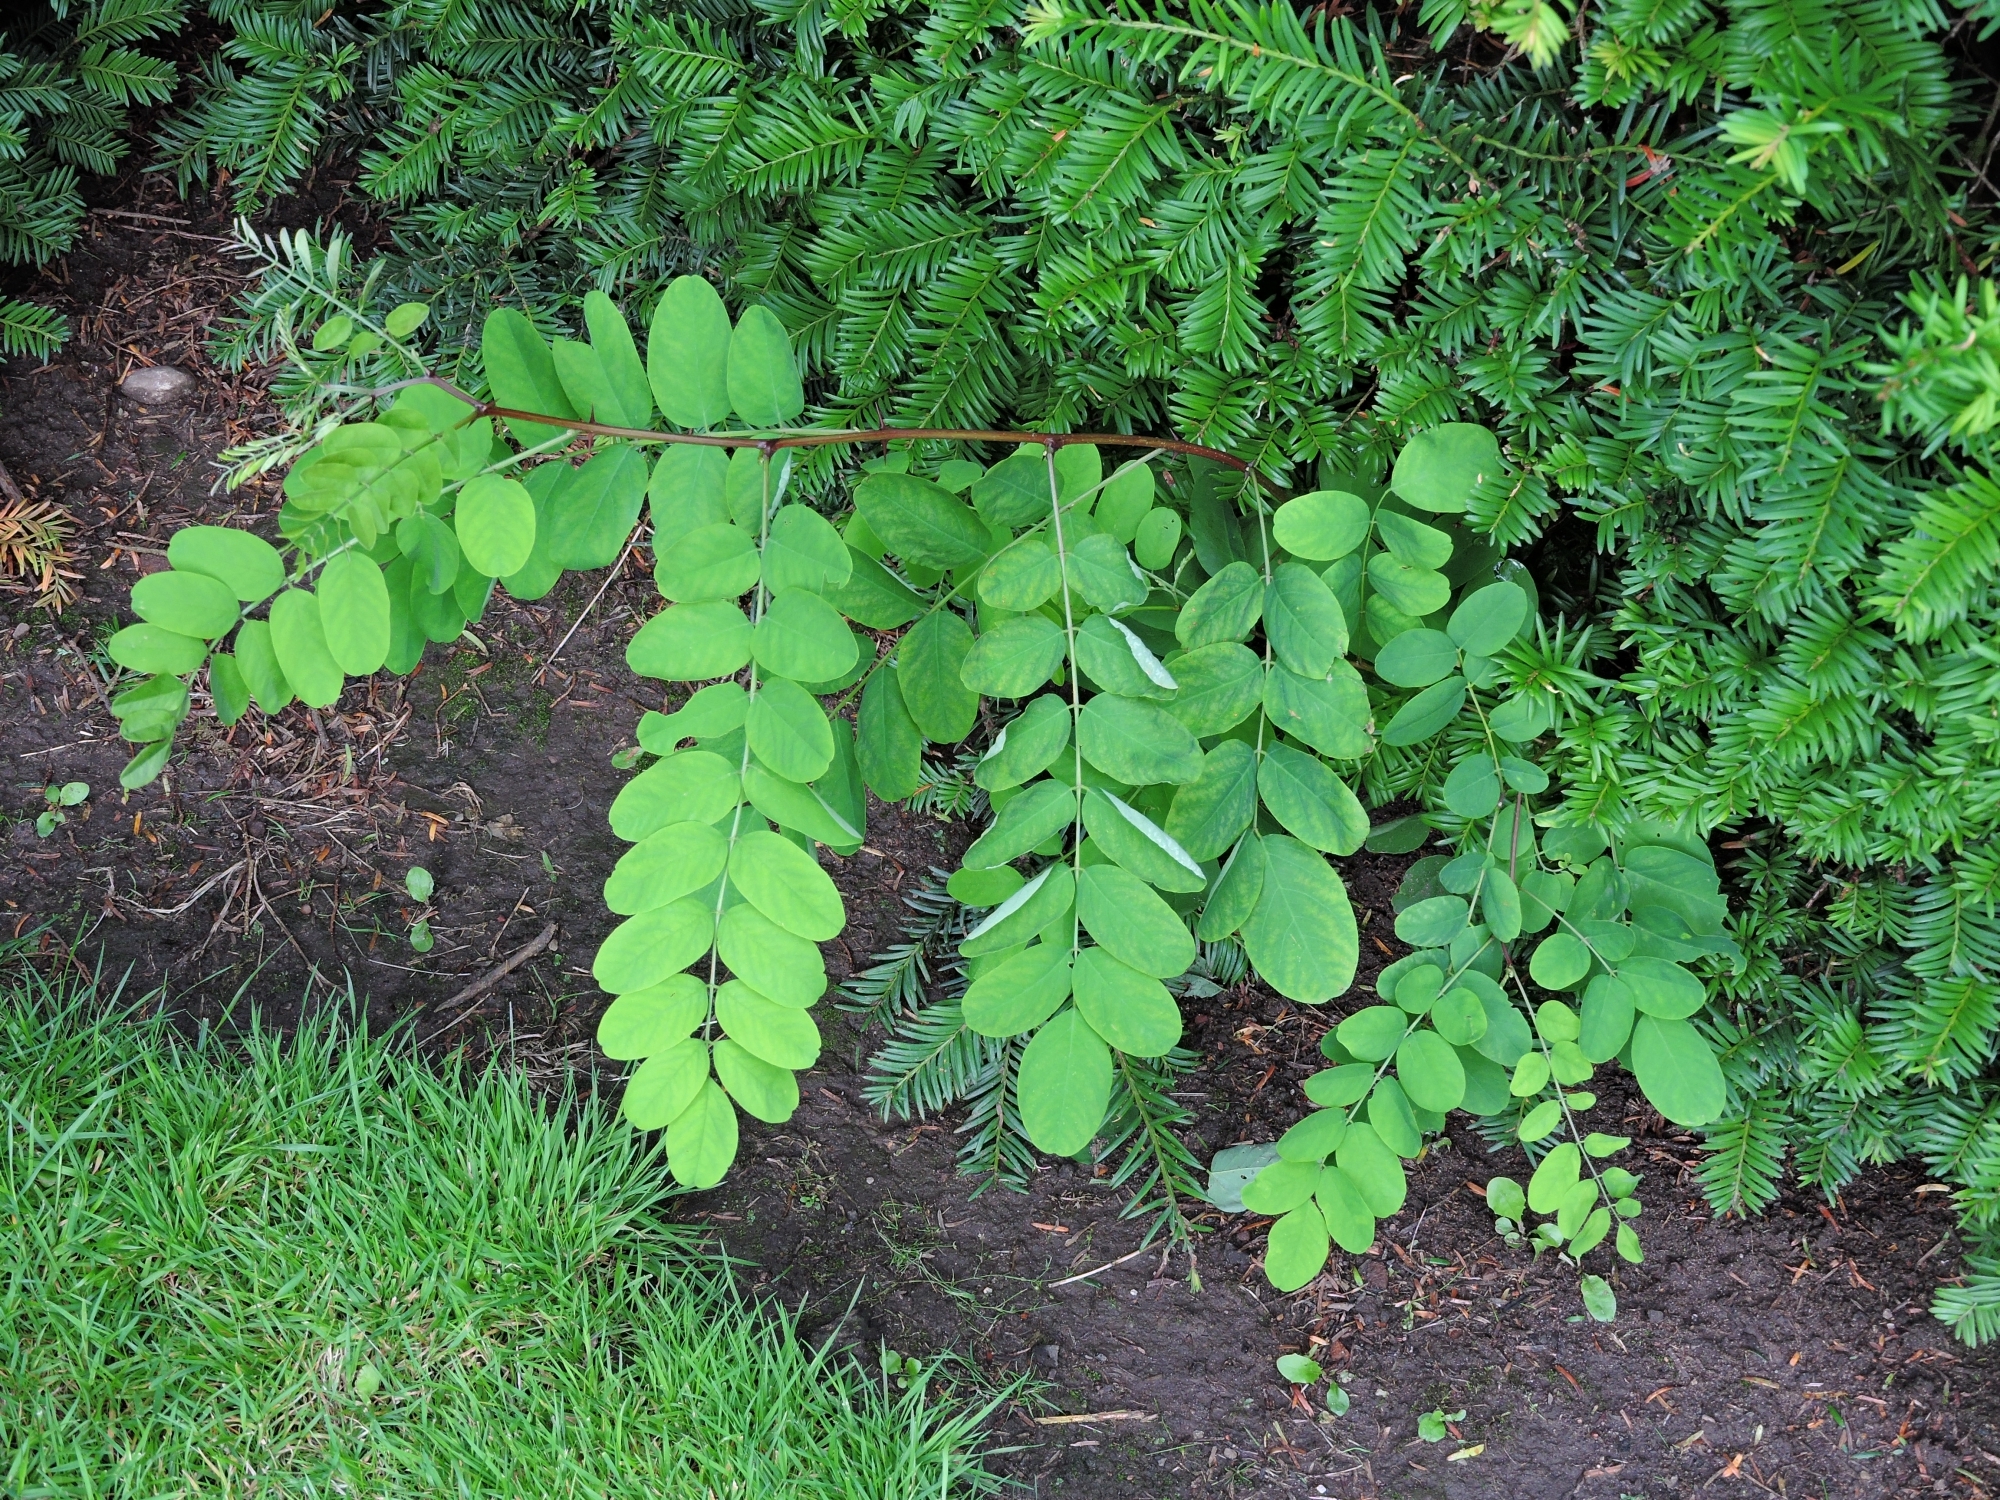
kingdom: Plantae
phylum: Tracheophyta
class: Magnoliopsida
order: Fabales
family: Fabaceae
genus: Robinia
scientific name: Robinia pseudoacacia
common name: Black locust
